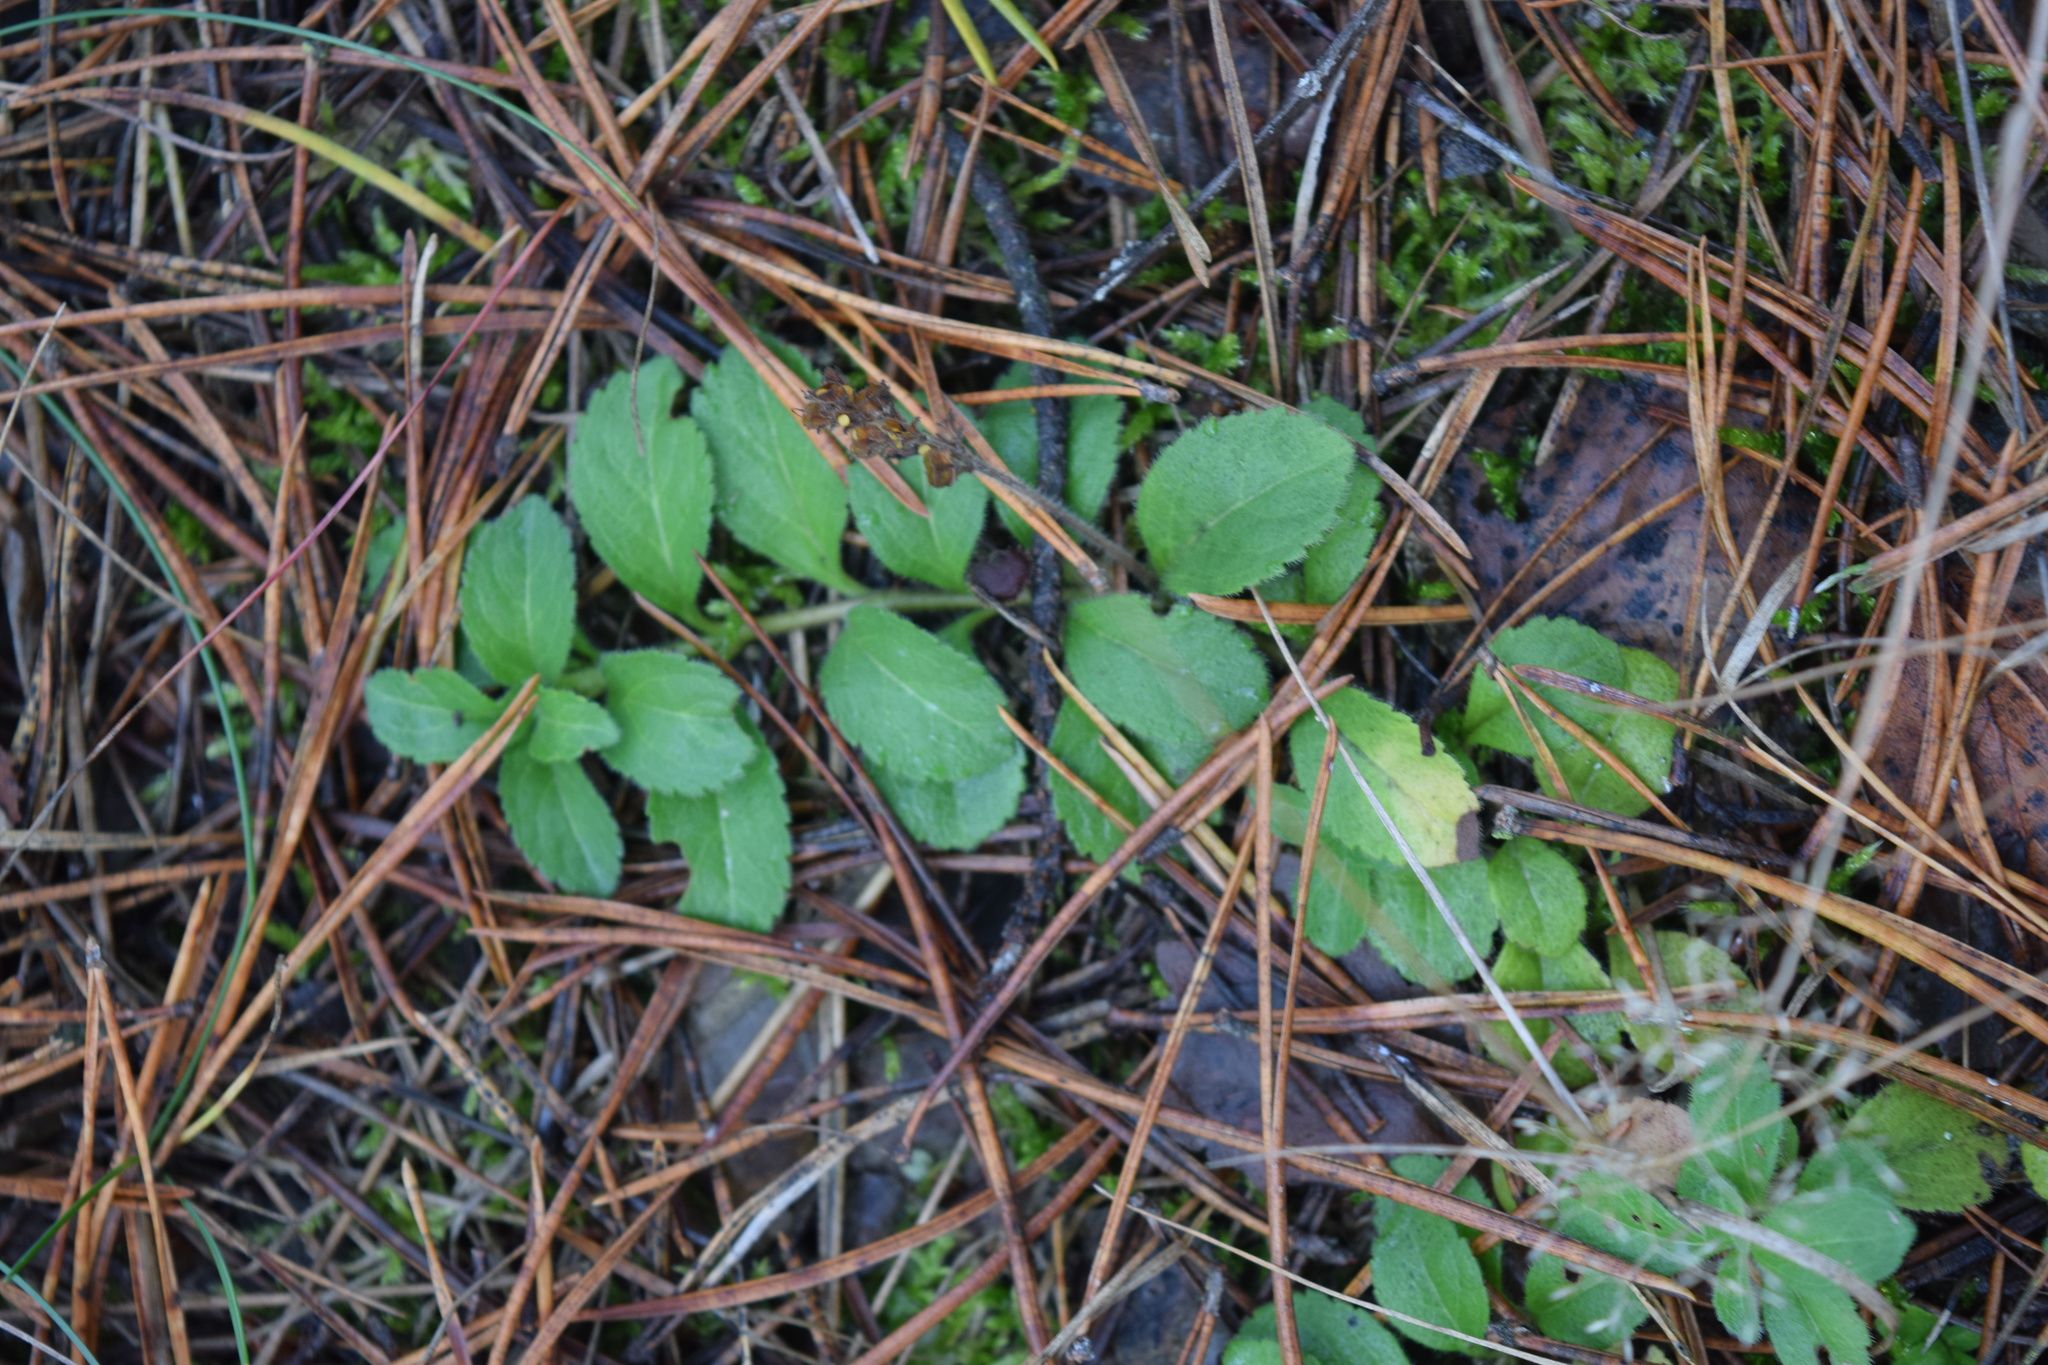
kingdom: Plantae
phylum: Tracheophyta
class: Magnoliopsida
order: Lamiales
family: Plantaginaceae
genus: Veronica
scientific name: Veronica officinalis
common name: Common speedwell
